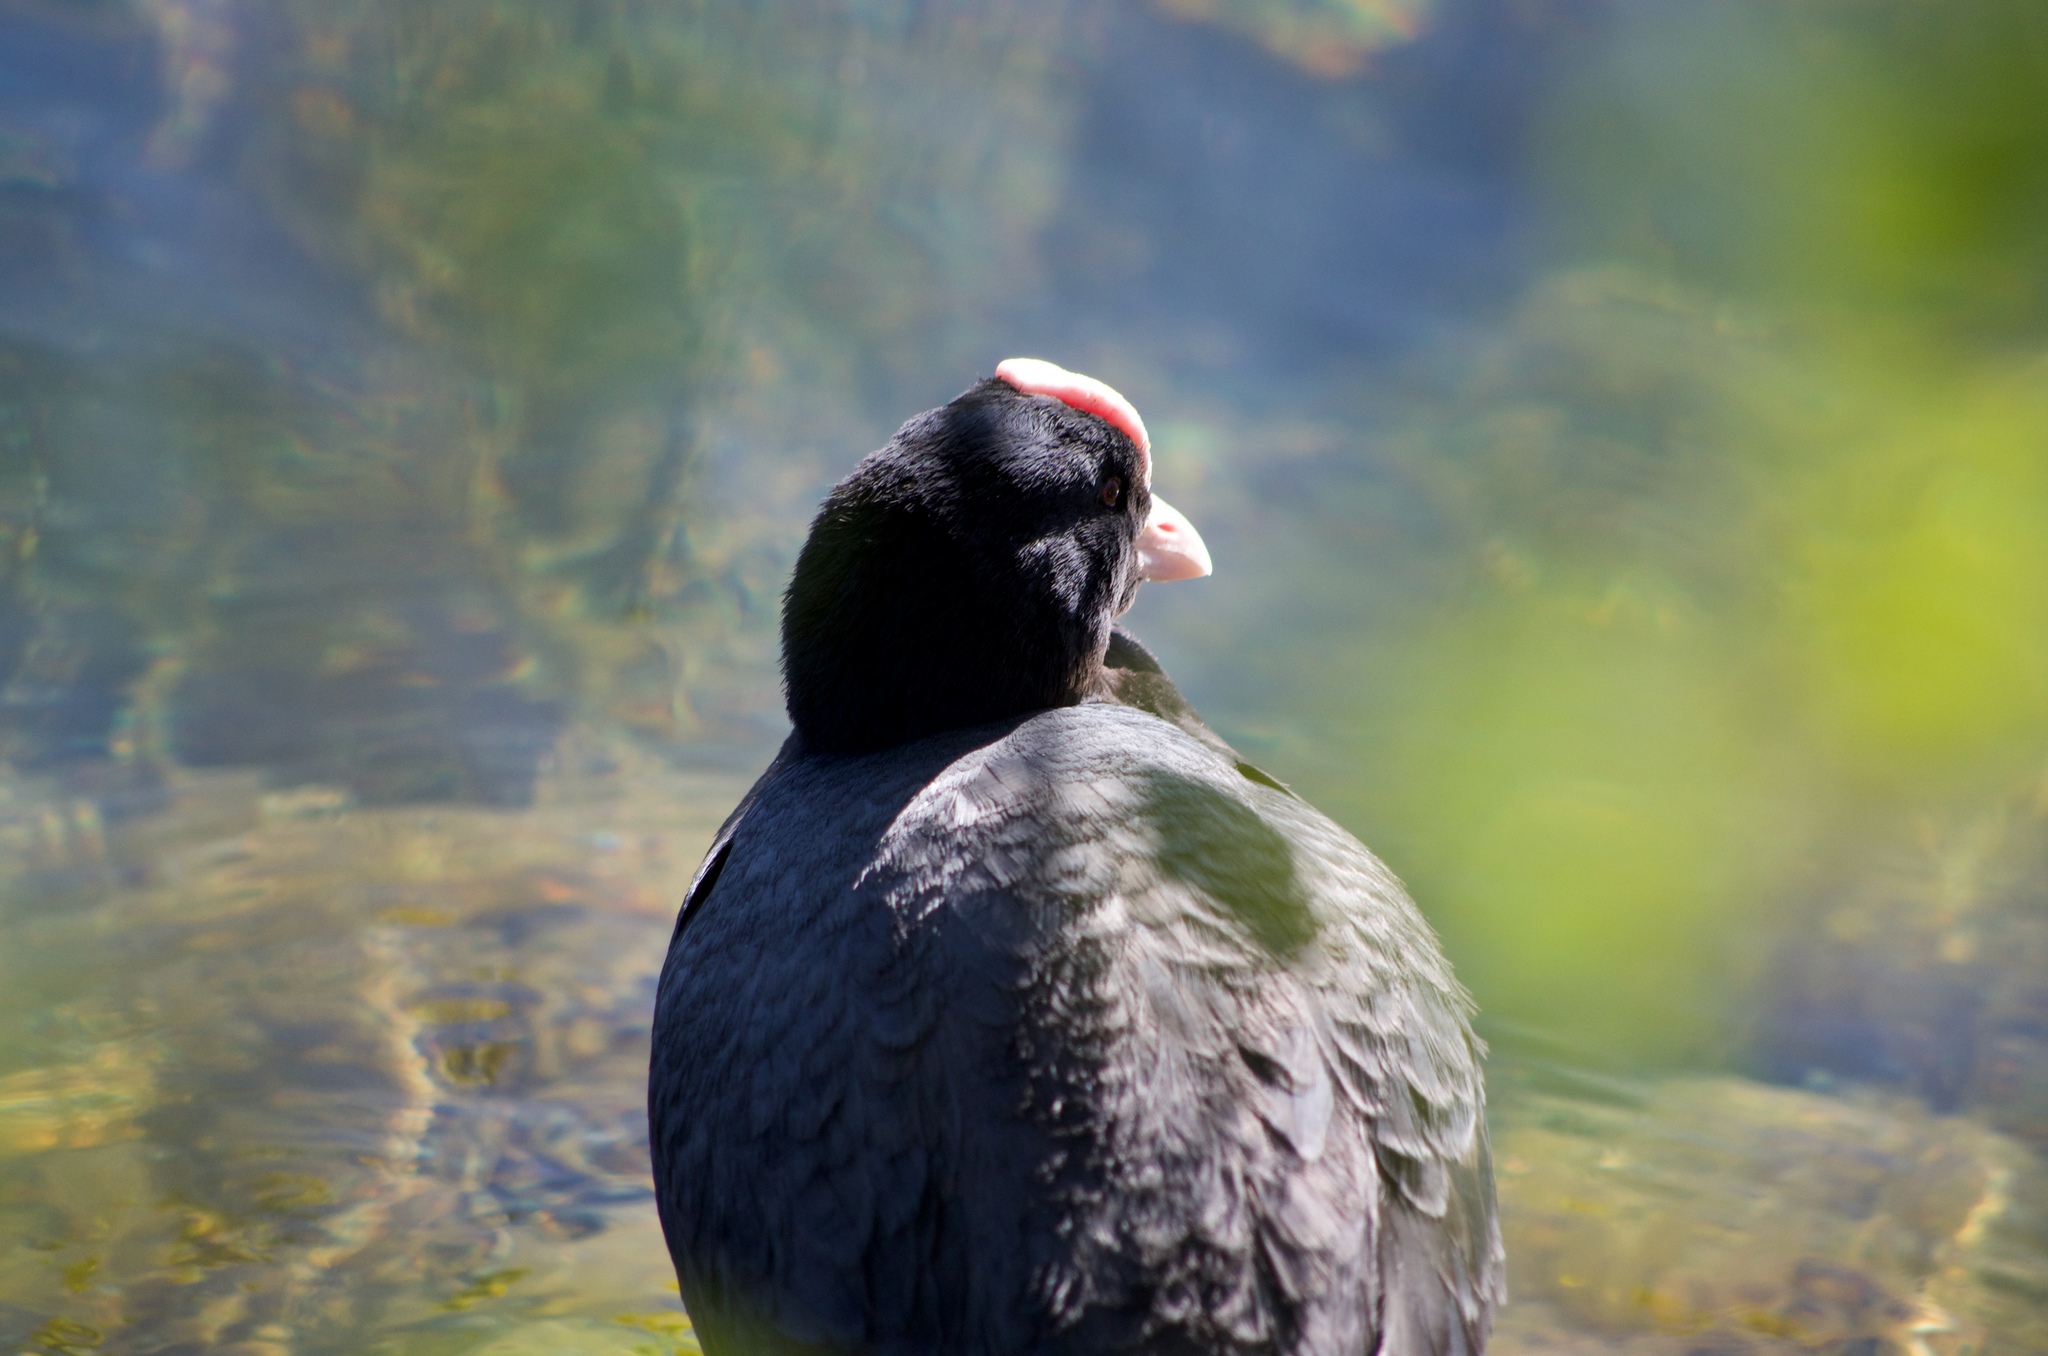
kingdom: Animalia
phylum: Chordata
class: Aves
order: Gruiformes
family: Rallidae
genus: Fulica
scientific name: Fulica atra
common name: Eurasian coot
